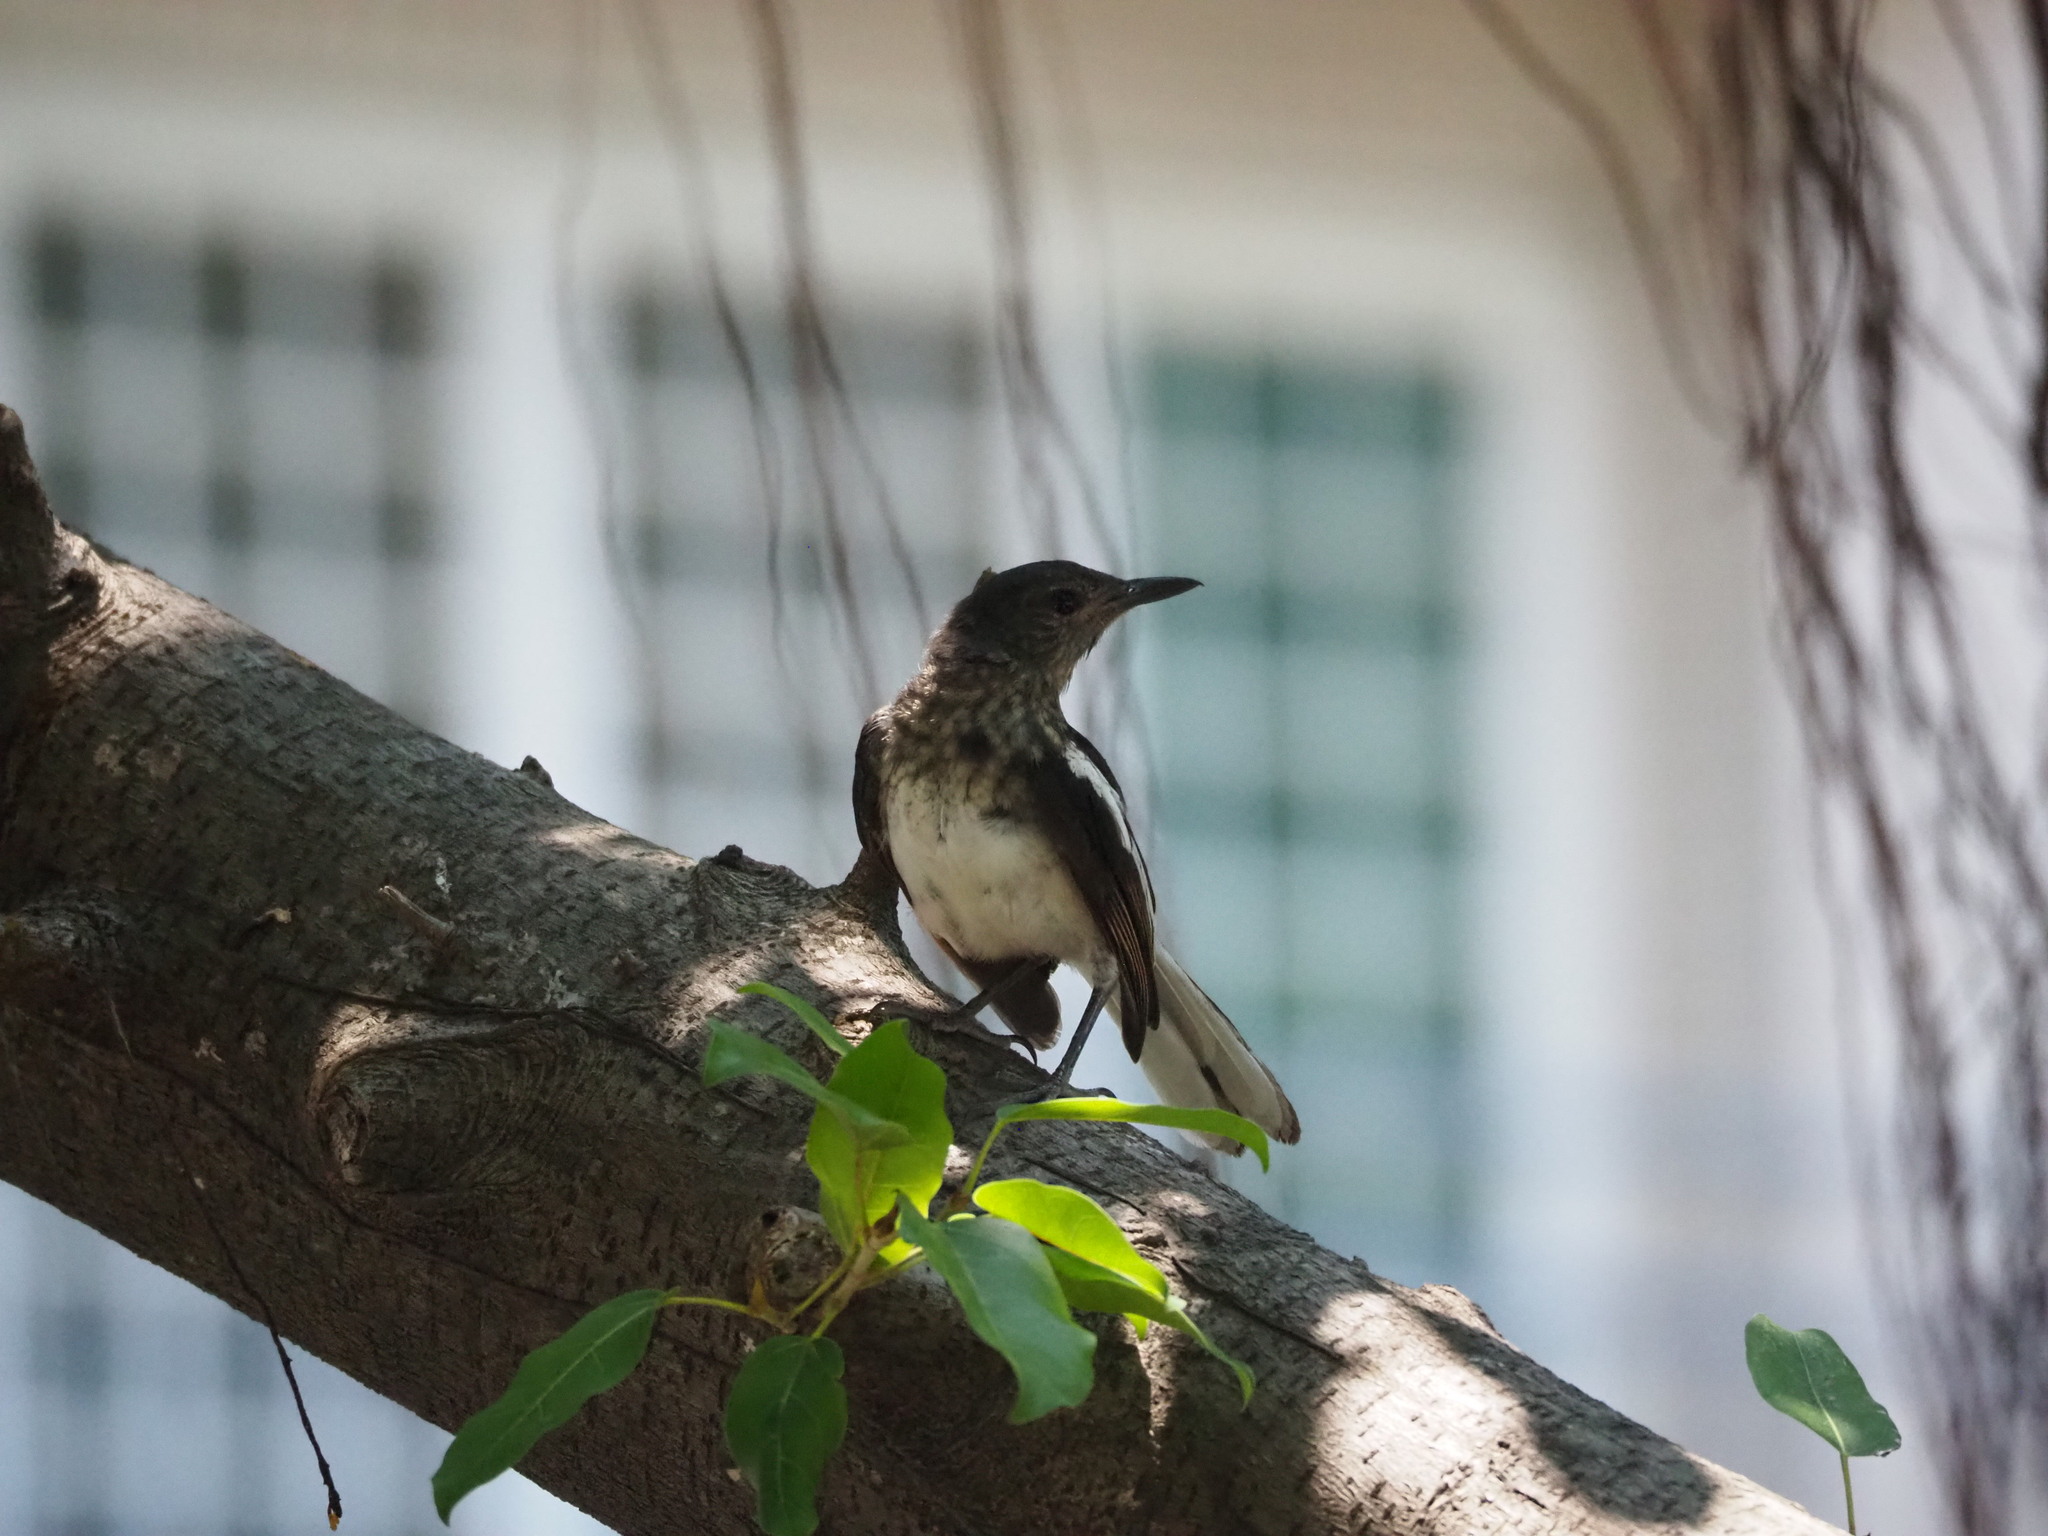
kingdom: Animalia
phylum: Chordata
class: Aves
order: Passeriformes
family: Muscicapidae
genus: Copsychus
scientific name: Copsychus saularis
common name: Oriental magpie-robin
